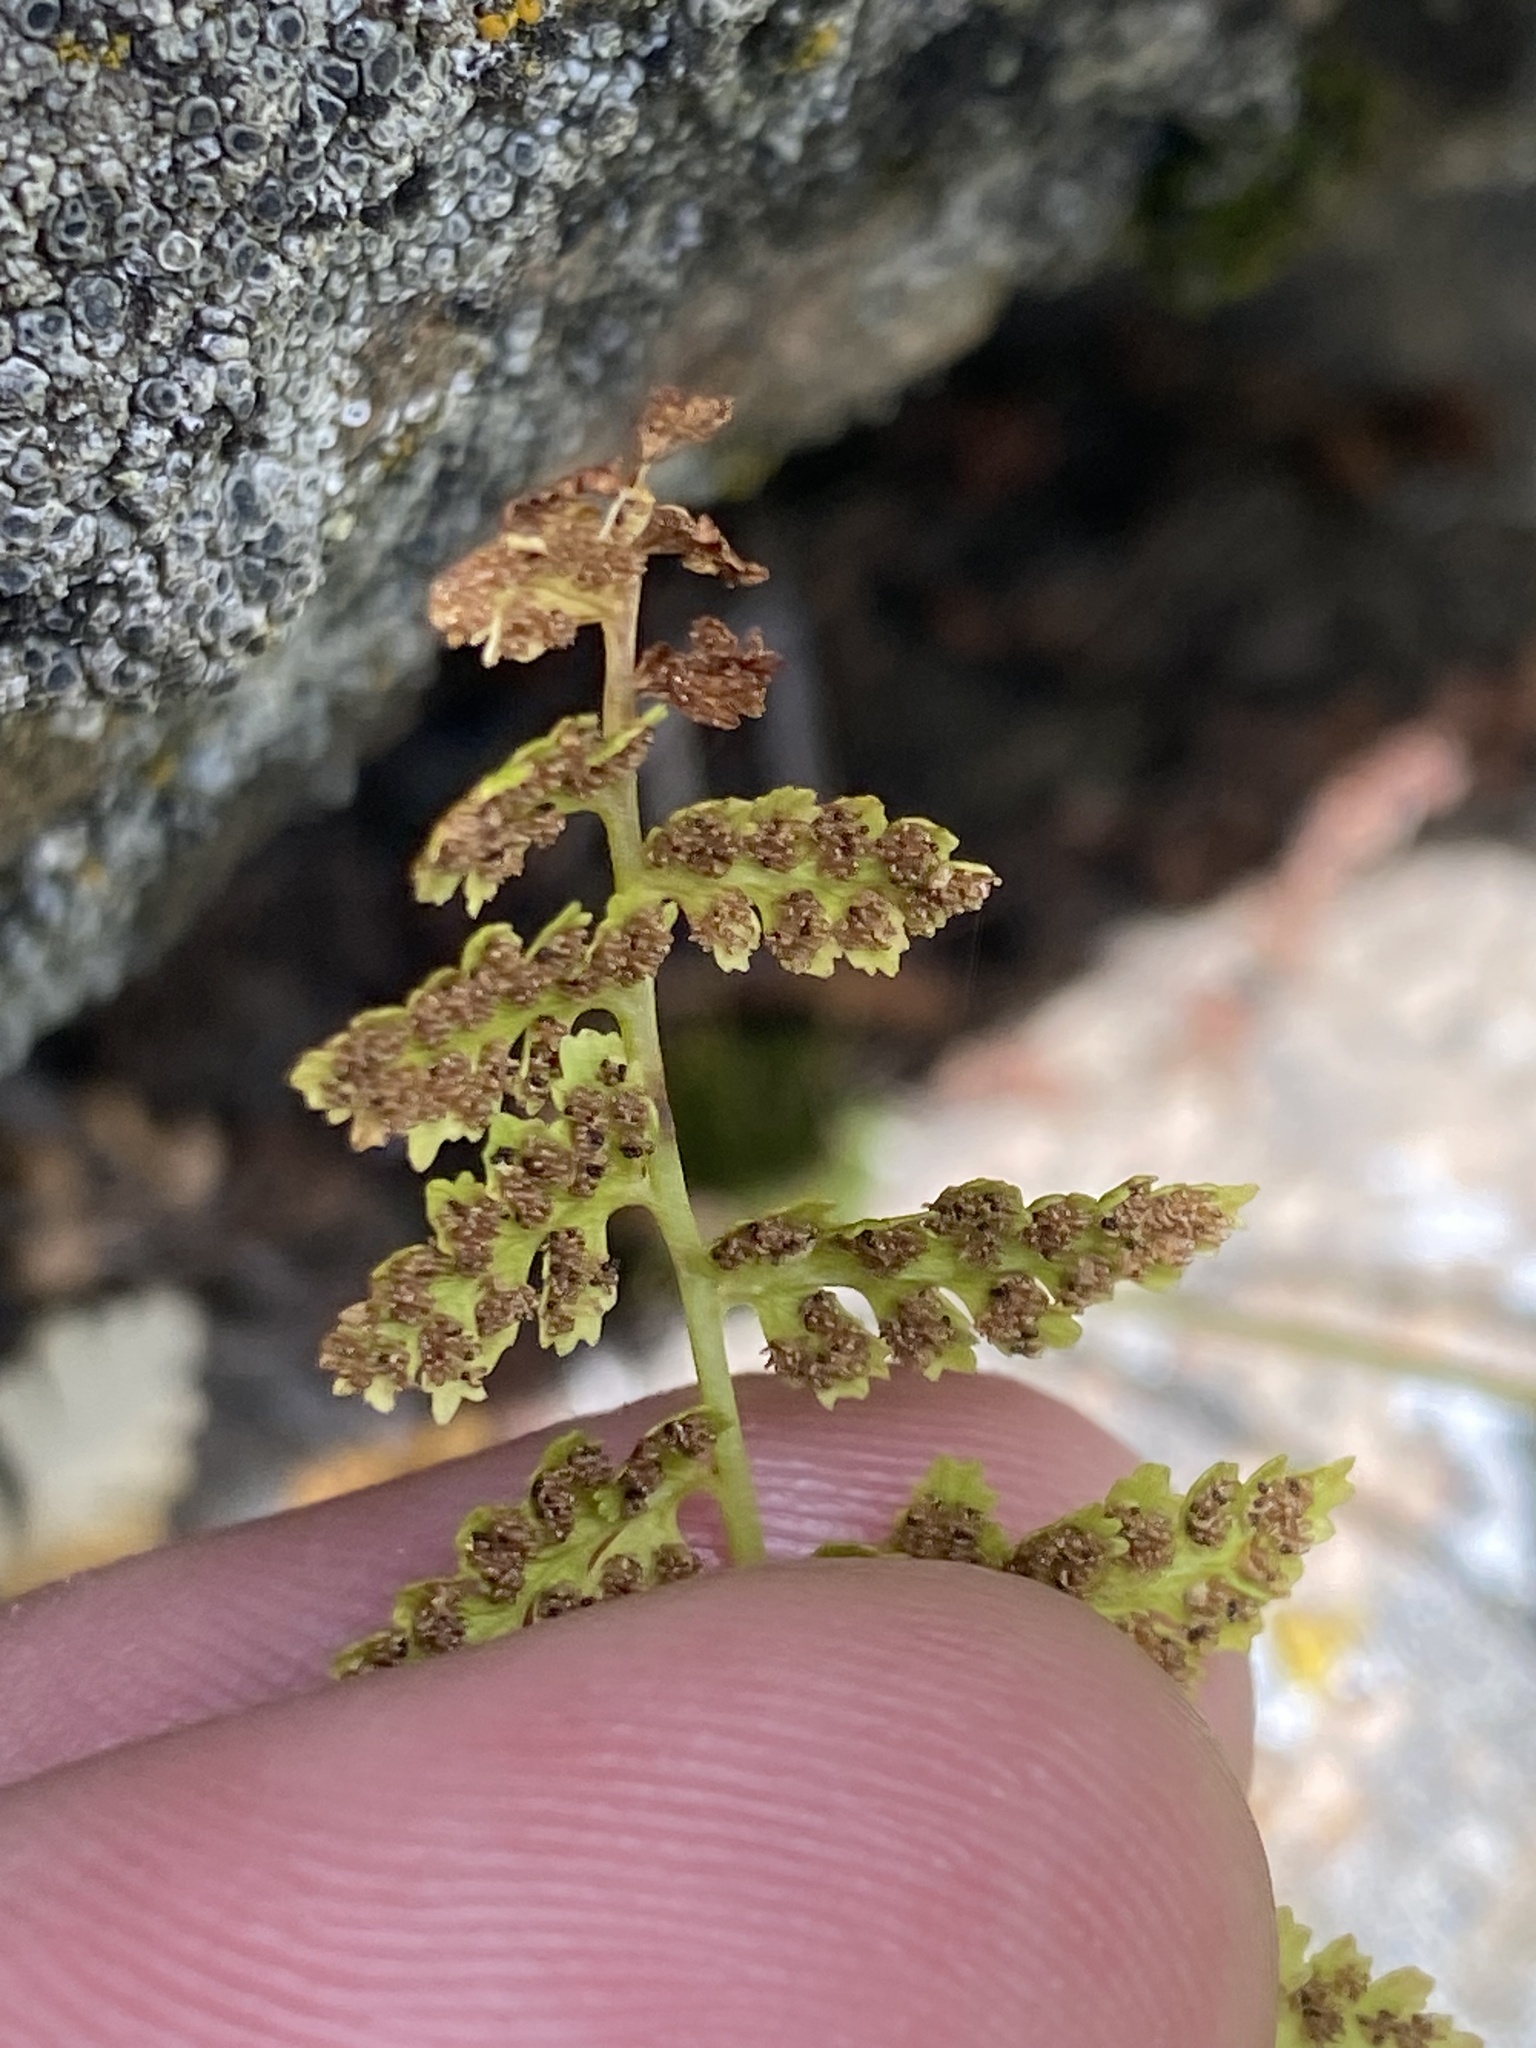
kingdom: Plantae
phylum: Tracheophyta
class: Polypodiopsida
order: Polypodiales
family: Cystopteridaceae
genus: Cystopteris
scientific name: Cystopteris fragilis
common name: Brittle bladder fern
